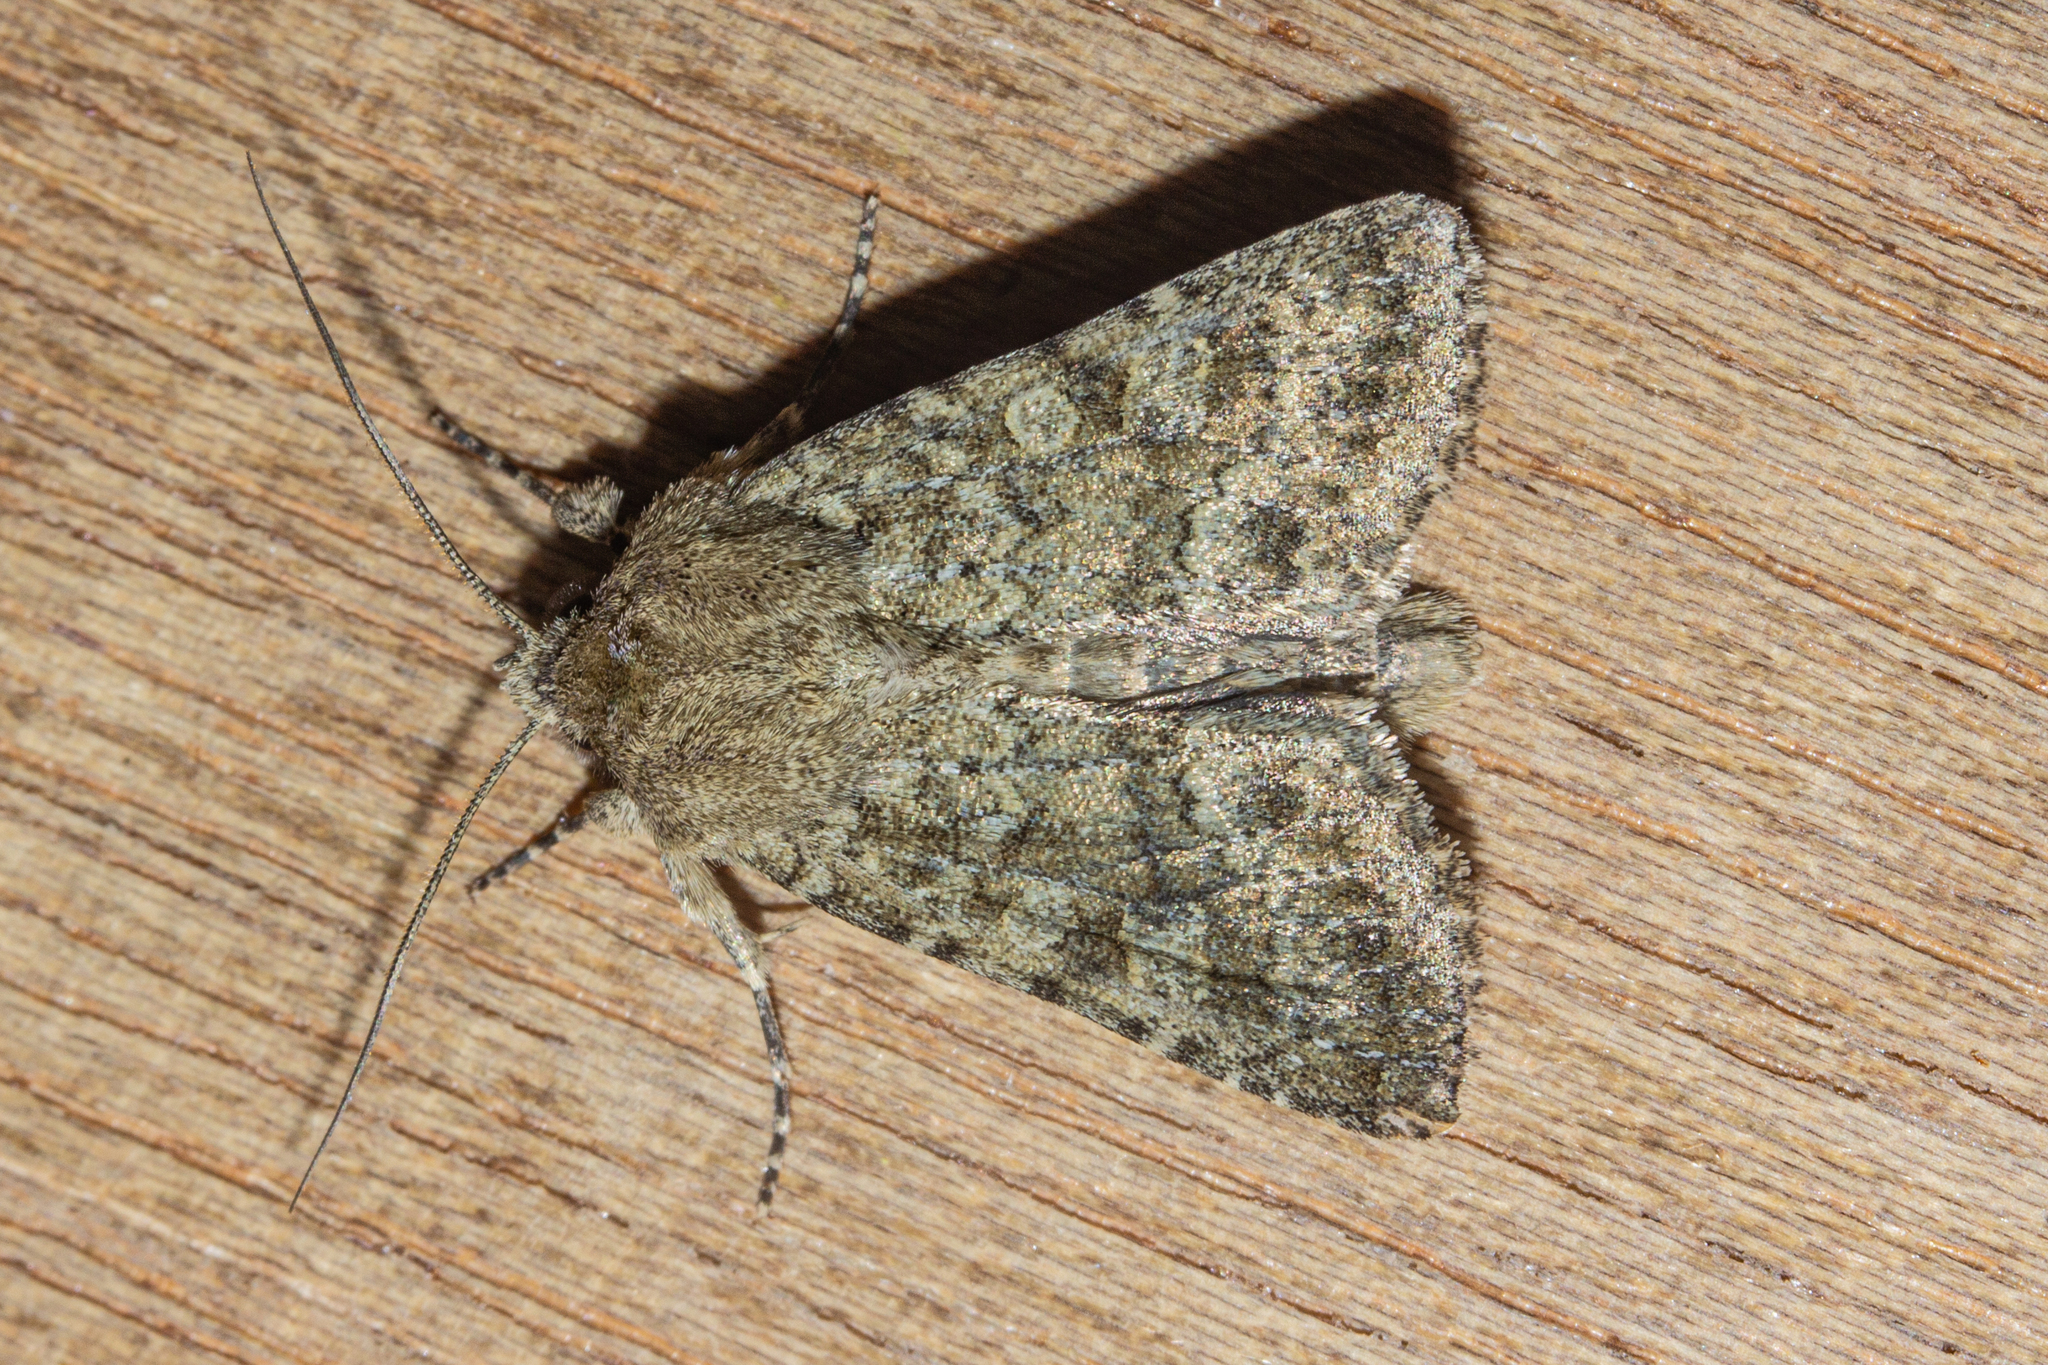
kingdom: Animalia
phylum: Arthropoda
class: Insecta
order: Lepidoptera
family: Noctuidae
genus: Ichneutica
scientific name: Ichneutica barbara
